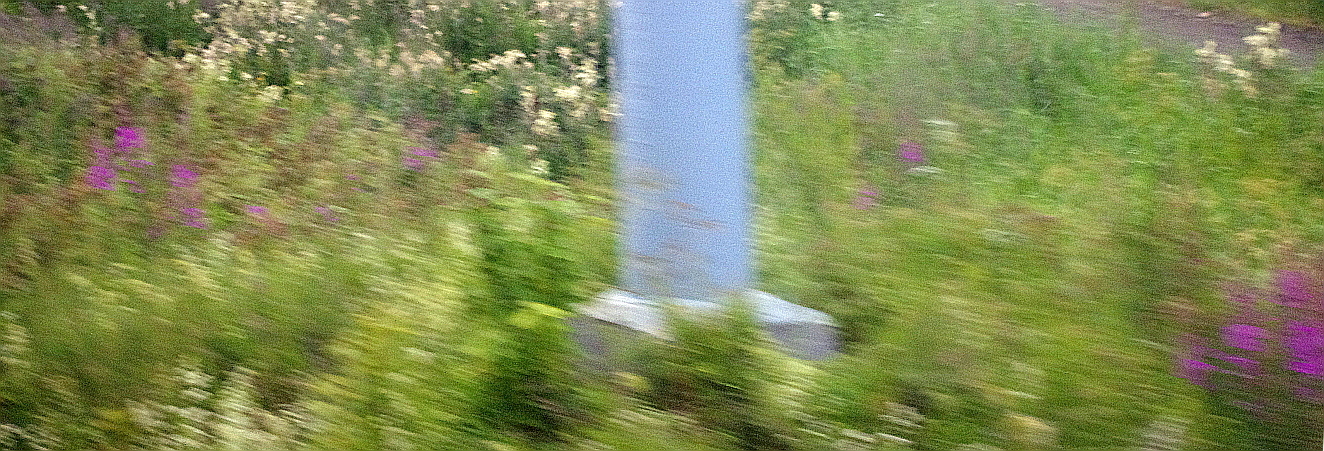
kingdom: Plantae
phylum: Tracheophyta
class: Magnoliopsida
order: Myrtales
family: Onagraceae
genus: Chamaenerion
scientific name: Chamaenerion angustifolium
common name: Fireweed
